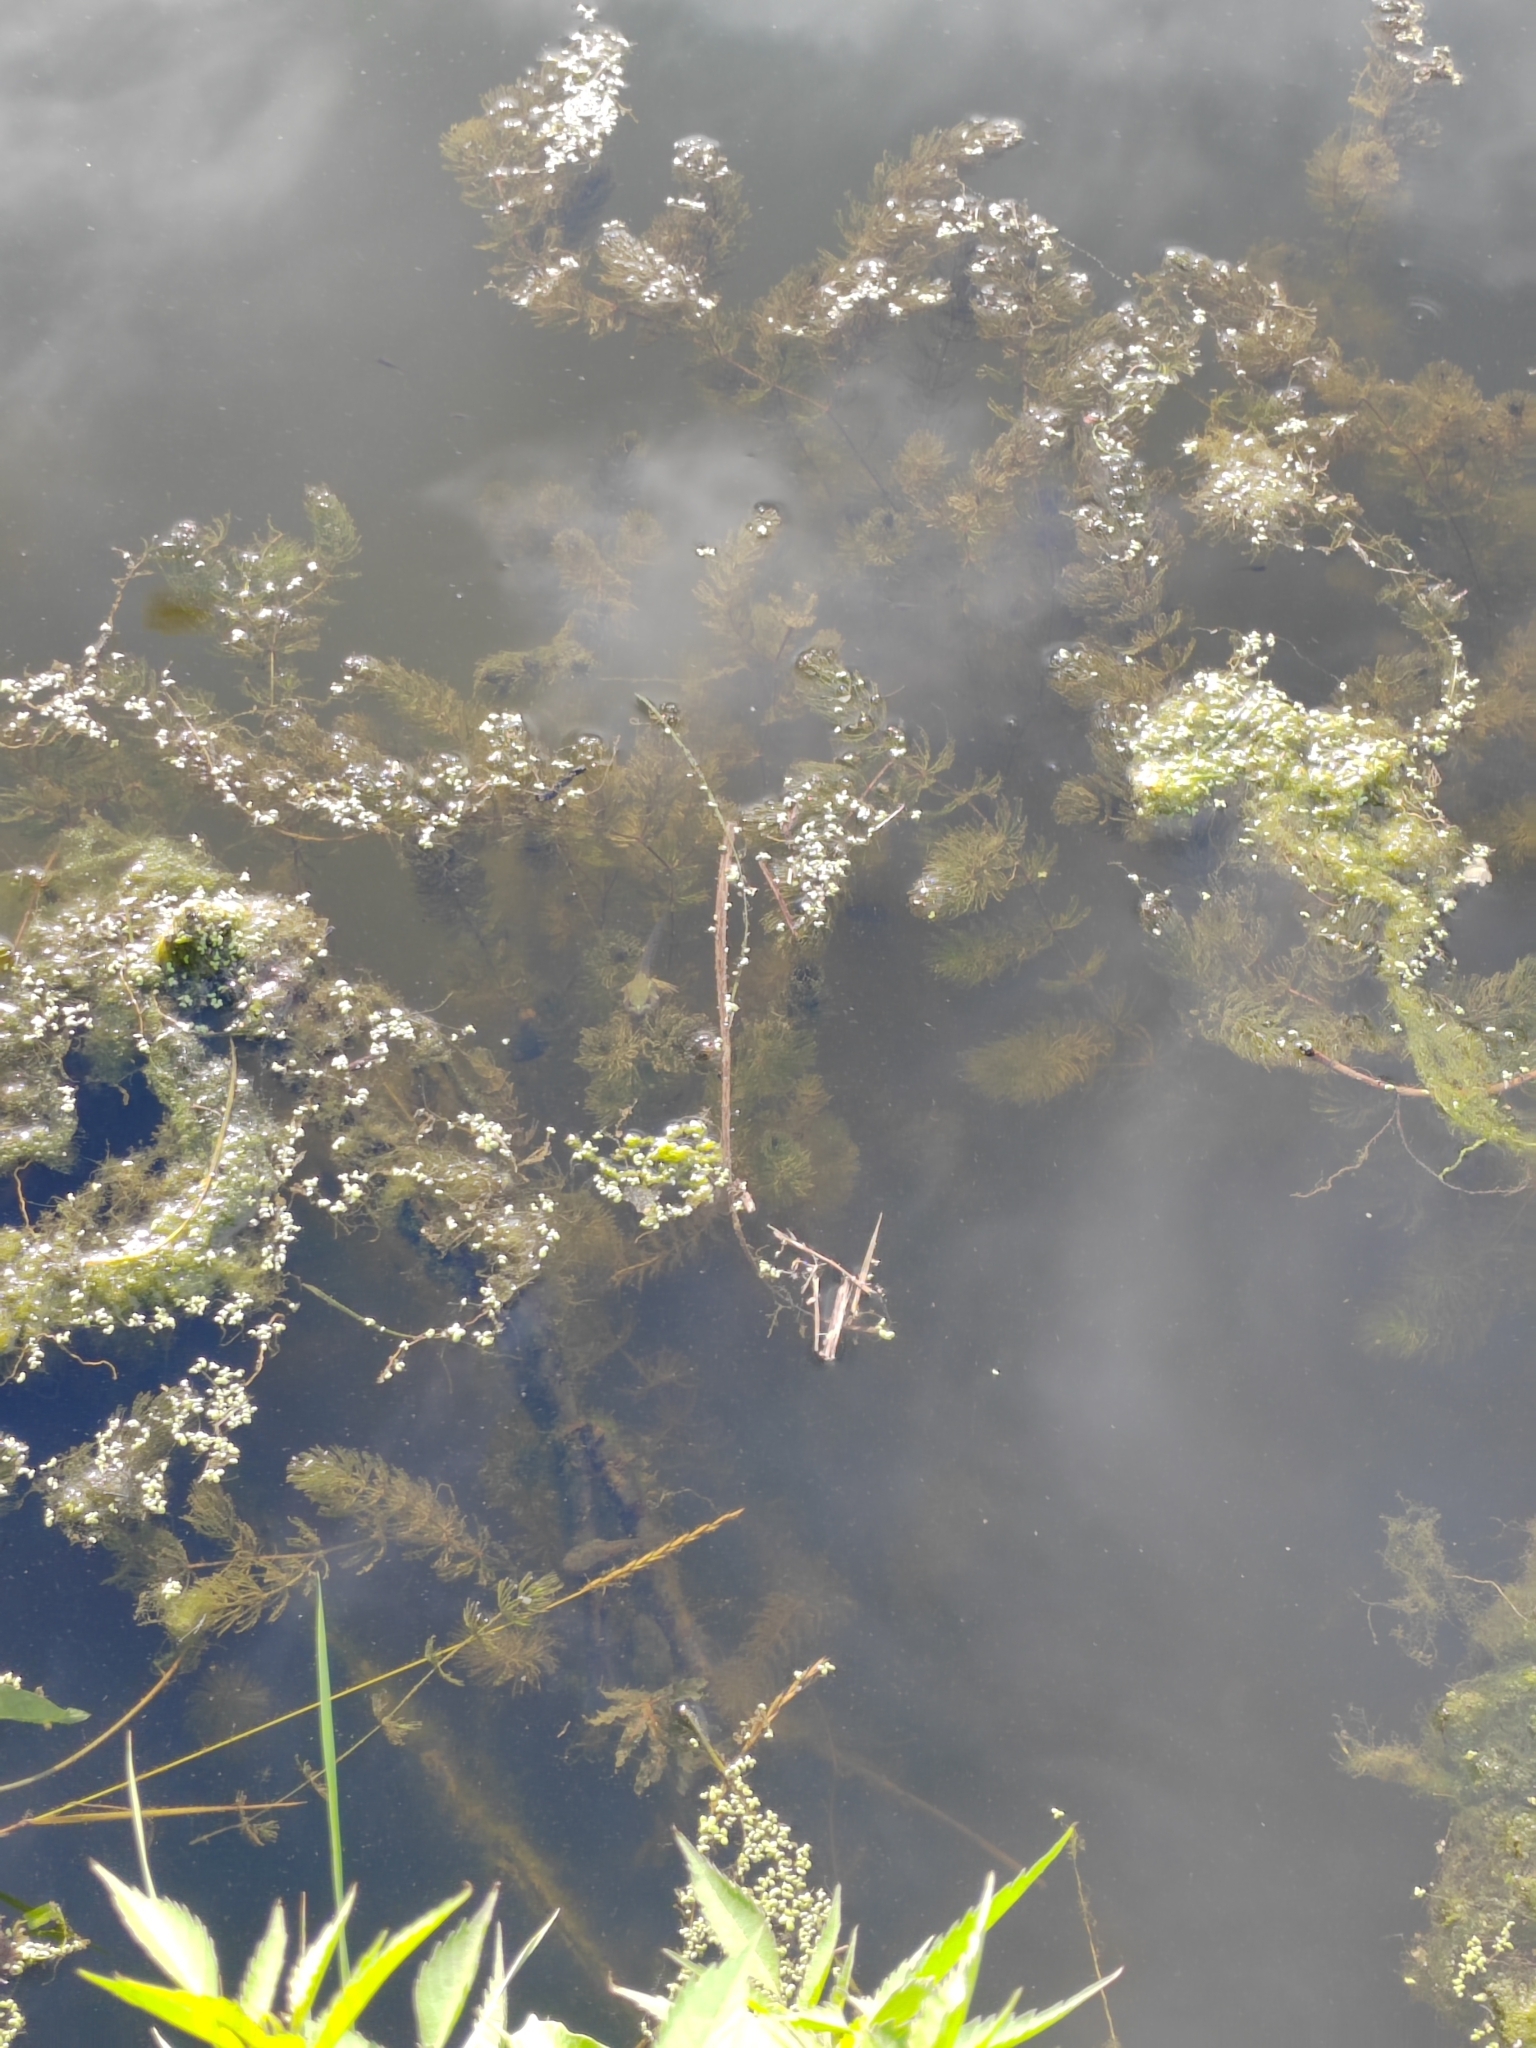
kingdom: Plantae
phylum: Tracheophyta
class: Magnoliopsida
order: Ceratophyllales
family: Ceratophyllaceae
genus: Ceratophyllum
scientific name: Ceratophyllum demersum
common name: Rigid hornwort
